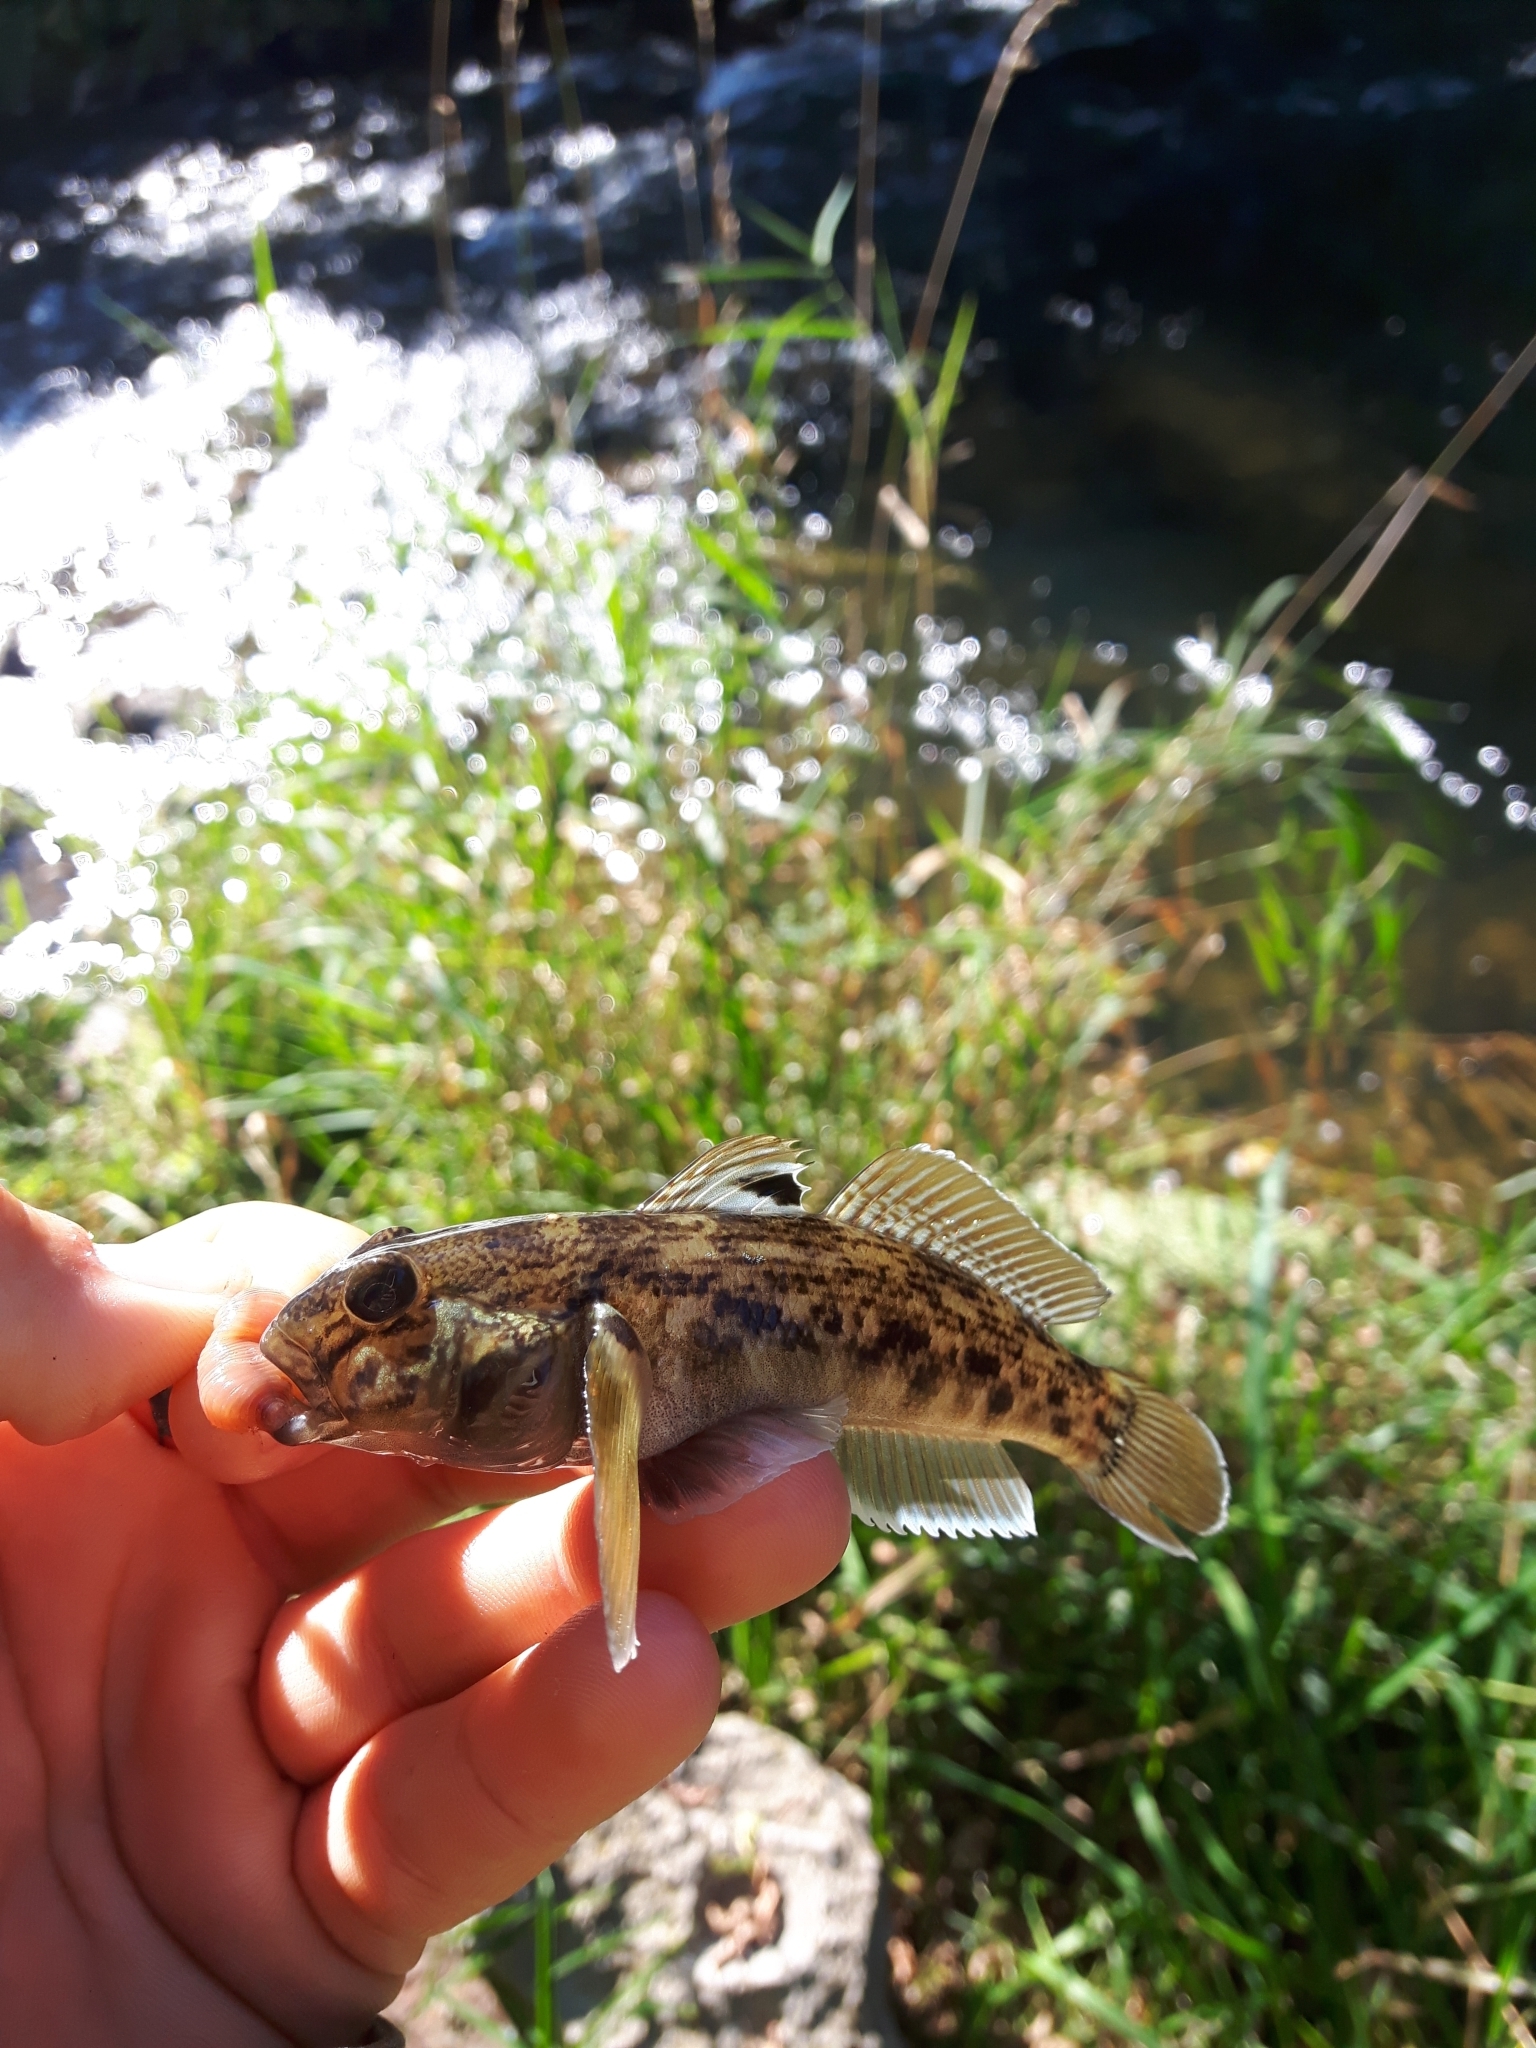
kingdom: Animalia
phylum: Chordata
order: Perciformes
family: Gobiidae
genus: Neogobius
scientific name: Neogobius melanostomus
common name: Round goby
